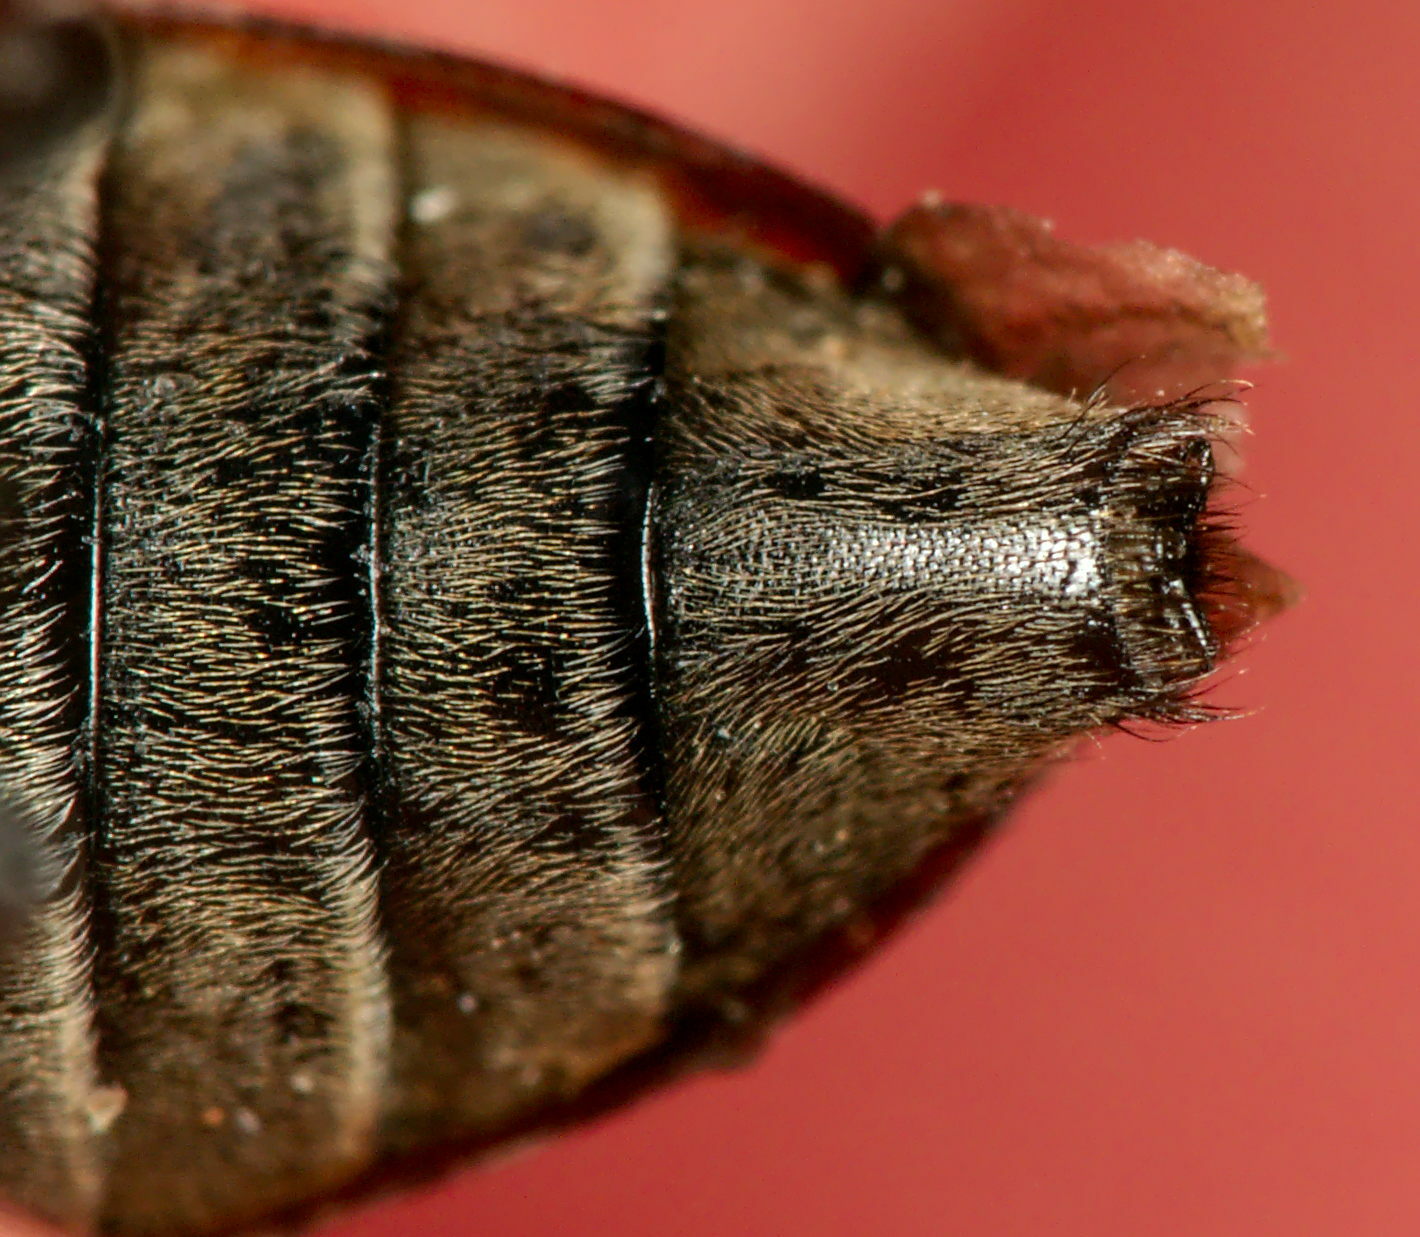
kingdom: Animalia
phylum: Arthropoda
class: Insecta
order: Coleoptera
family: Cerambycidae
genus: Leiopus
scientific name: Leiopus linnei
